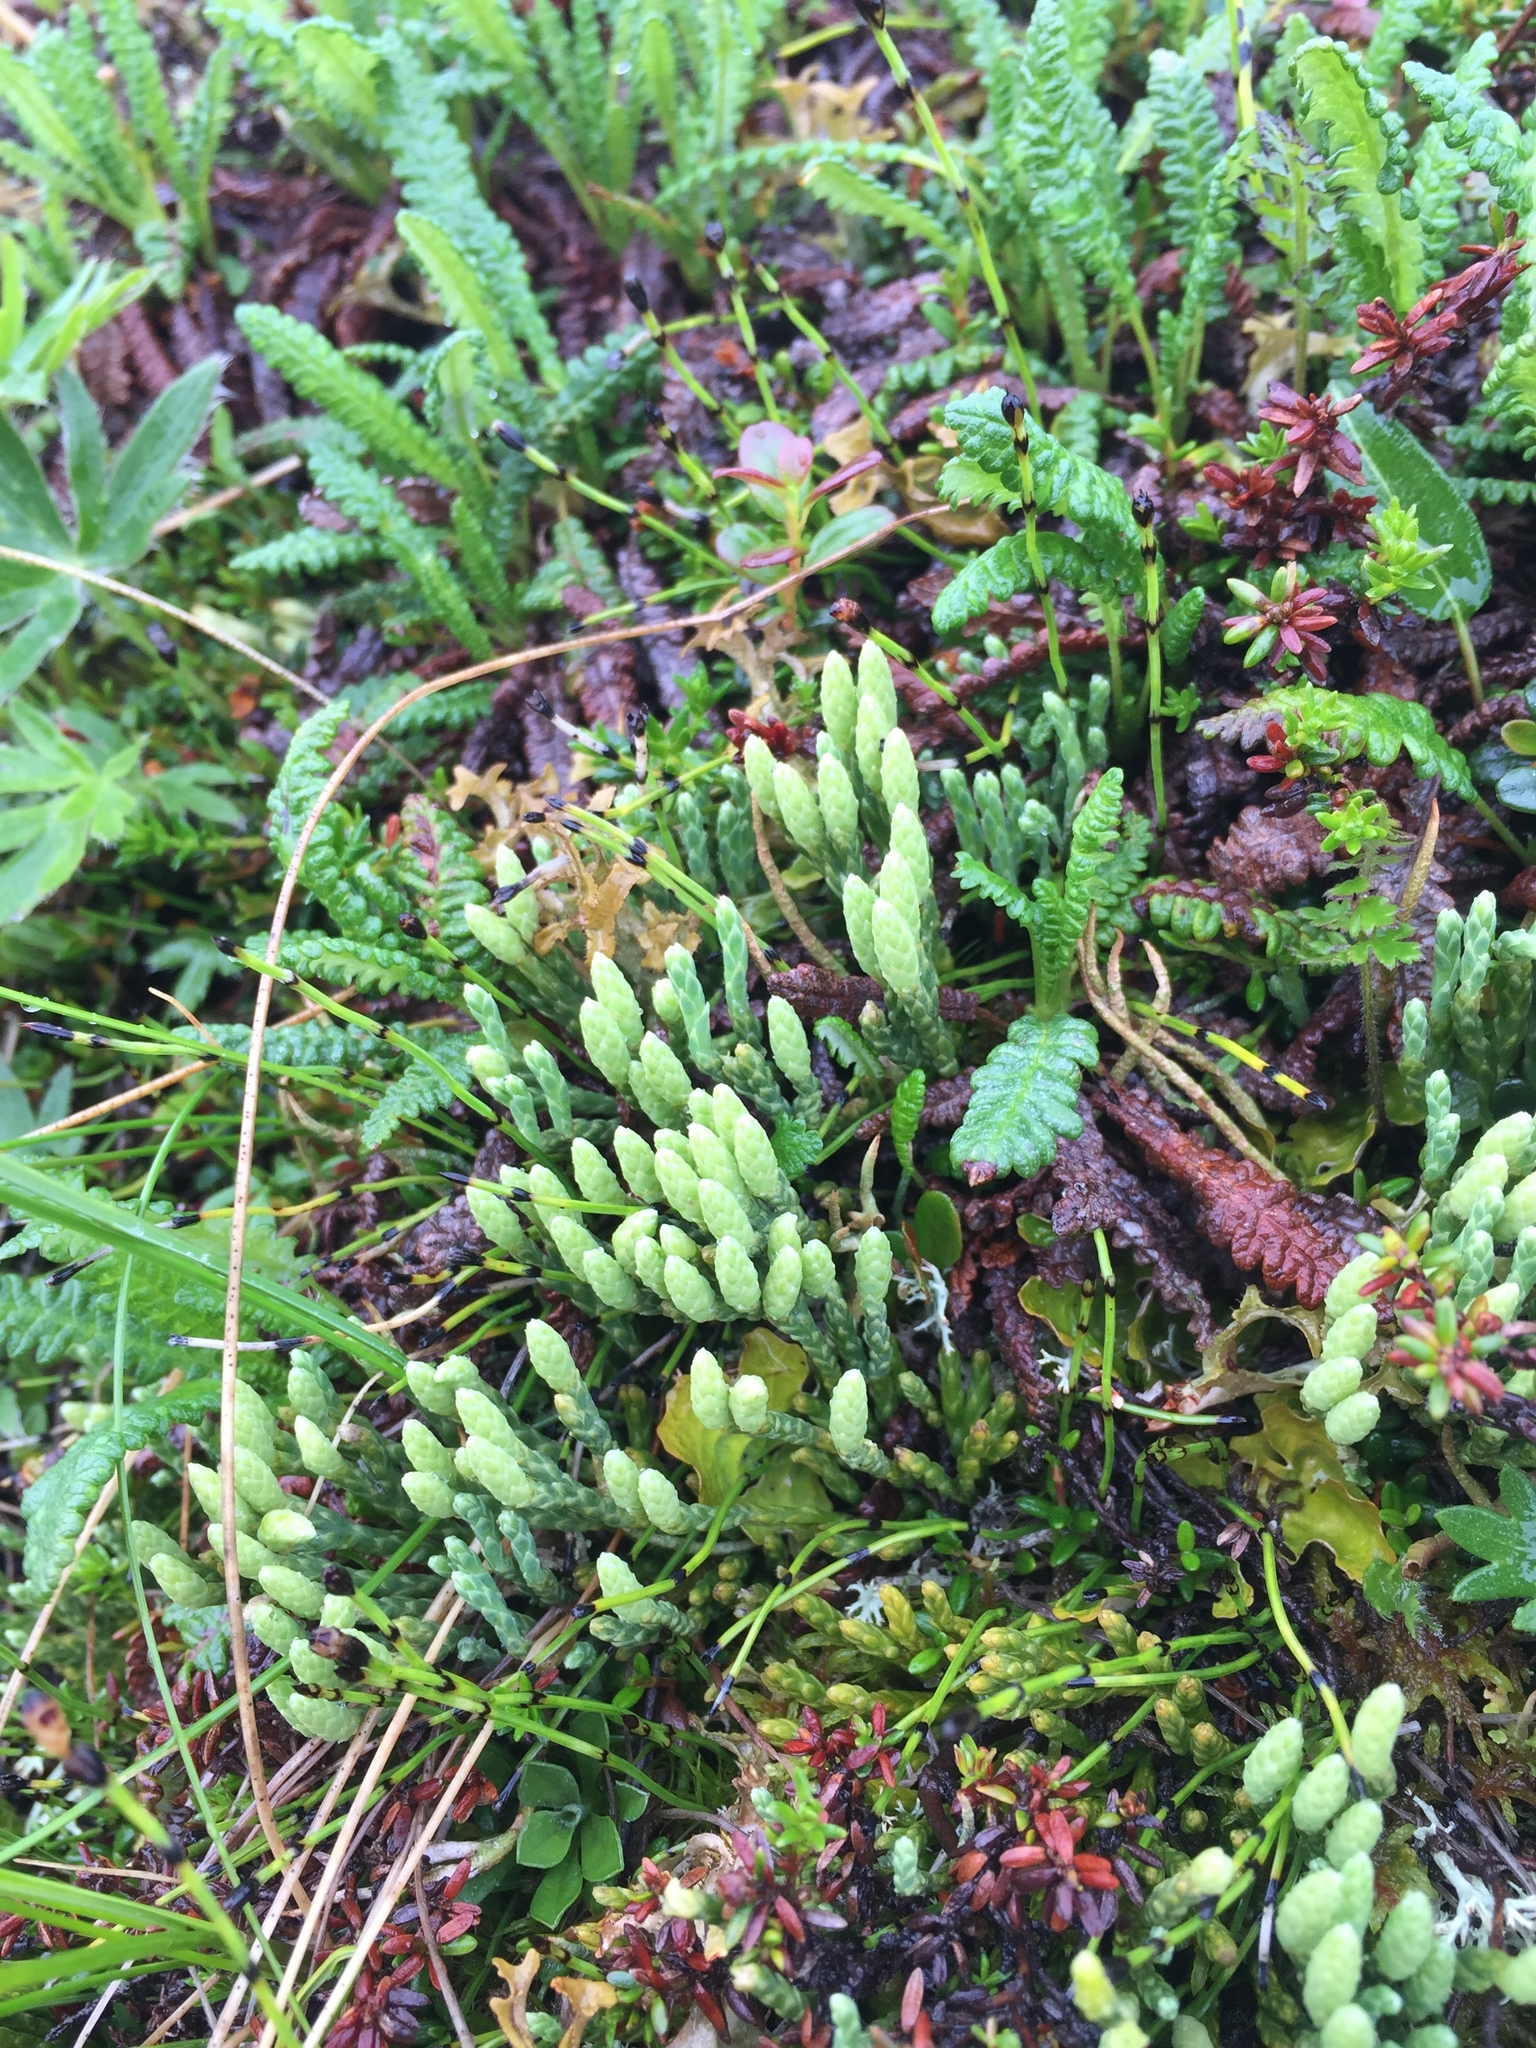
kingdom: Plantae
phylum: Tracheophyta
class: Lycopodiopsida
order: Lycopodiales
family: Lycopodiaceae
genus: Diphasiastrum
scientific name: Diphasiastrum alpinum
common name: Alpine clubmoss
